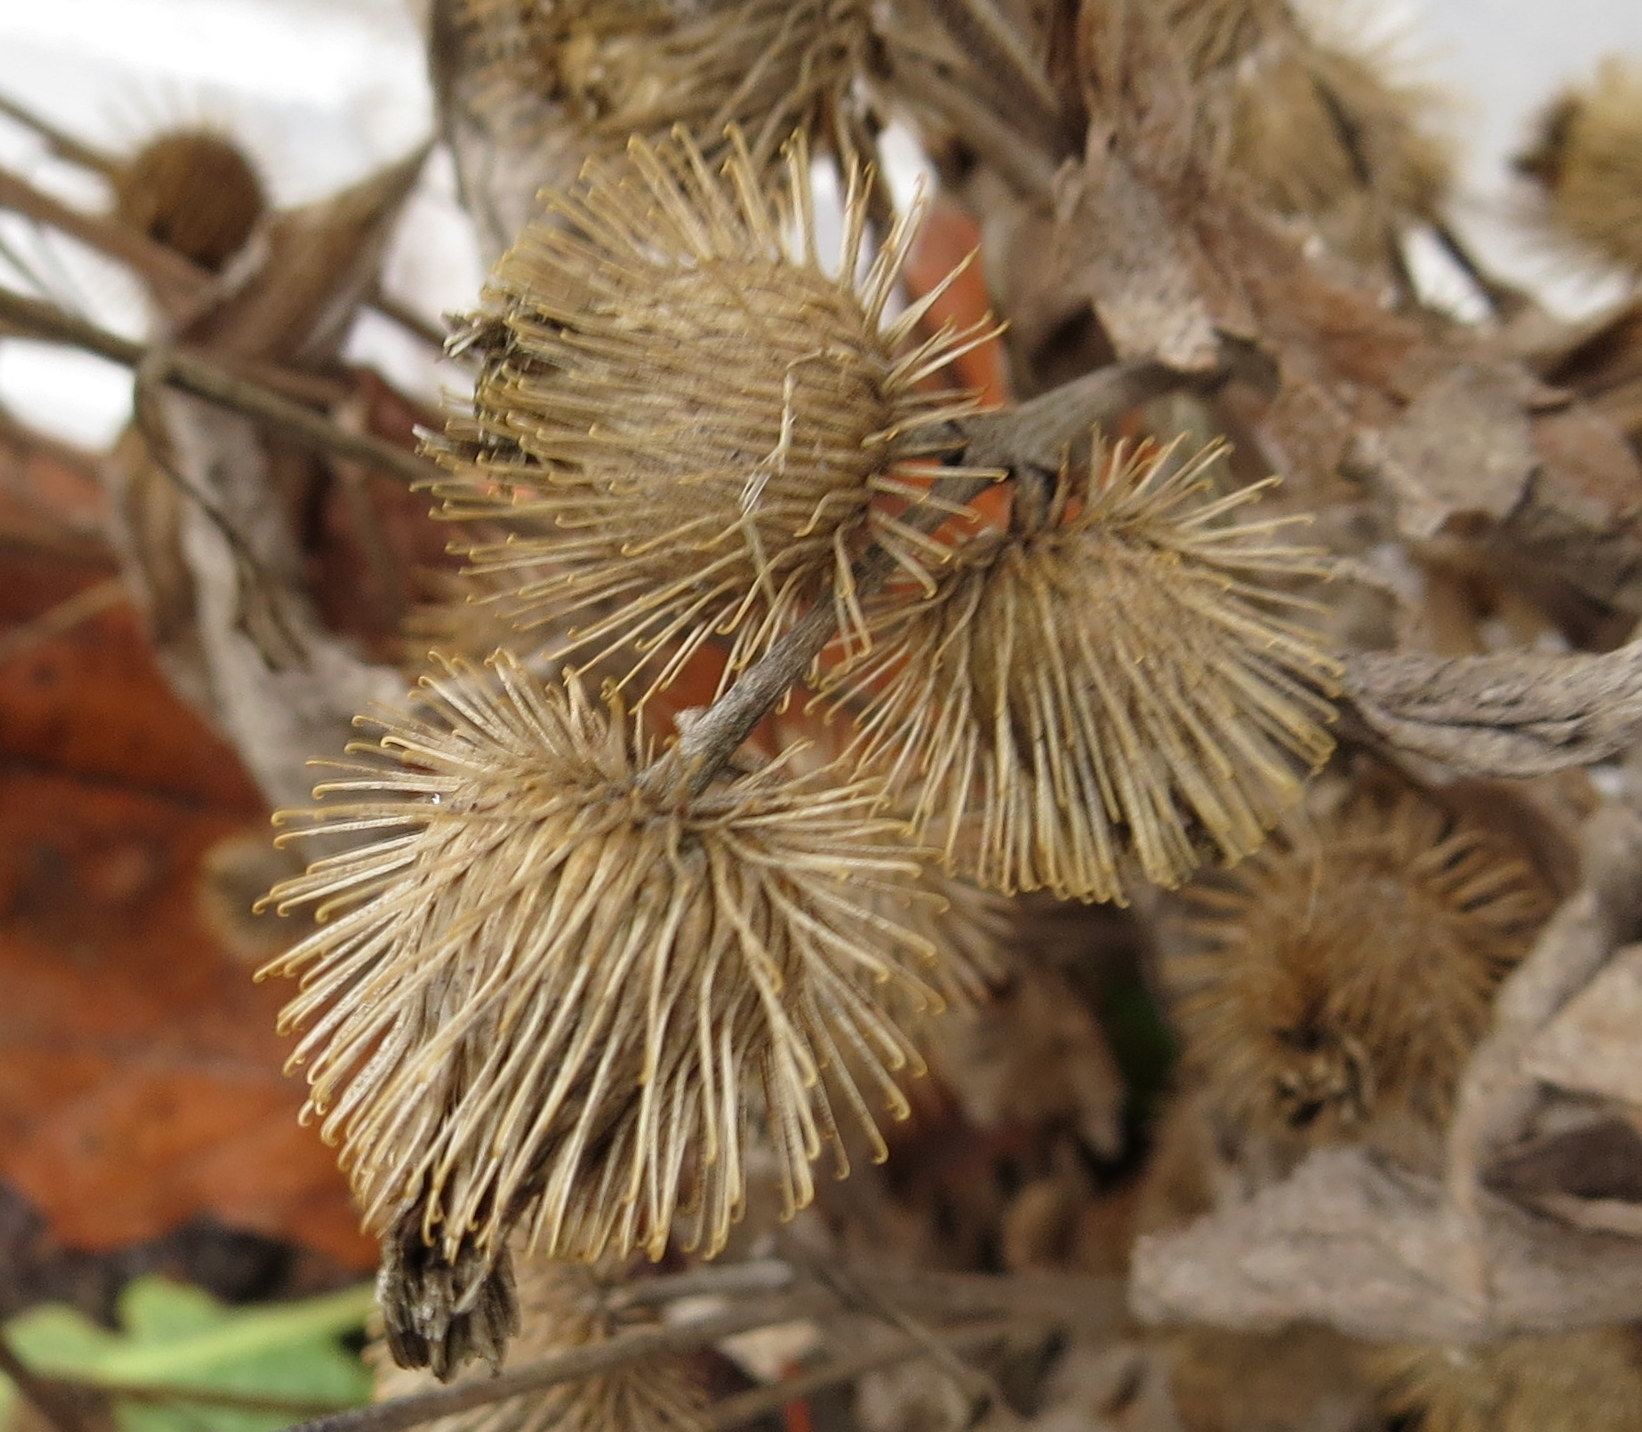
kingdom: Plantae
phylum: Tracheophyta
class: Magnoliopsida
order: Asterales
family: Asteraceae
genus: Arctium
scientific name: Arctium minus
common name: Lesser burdock
